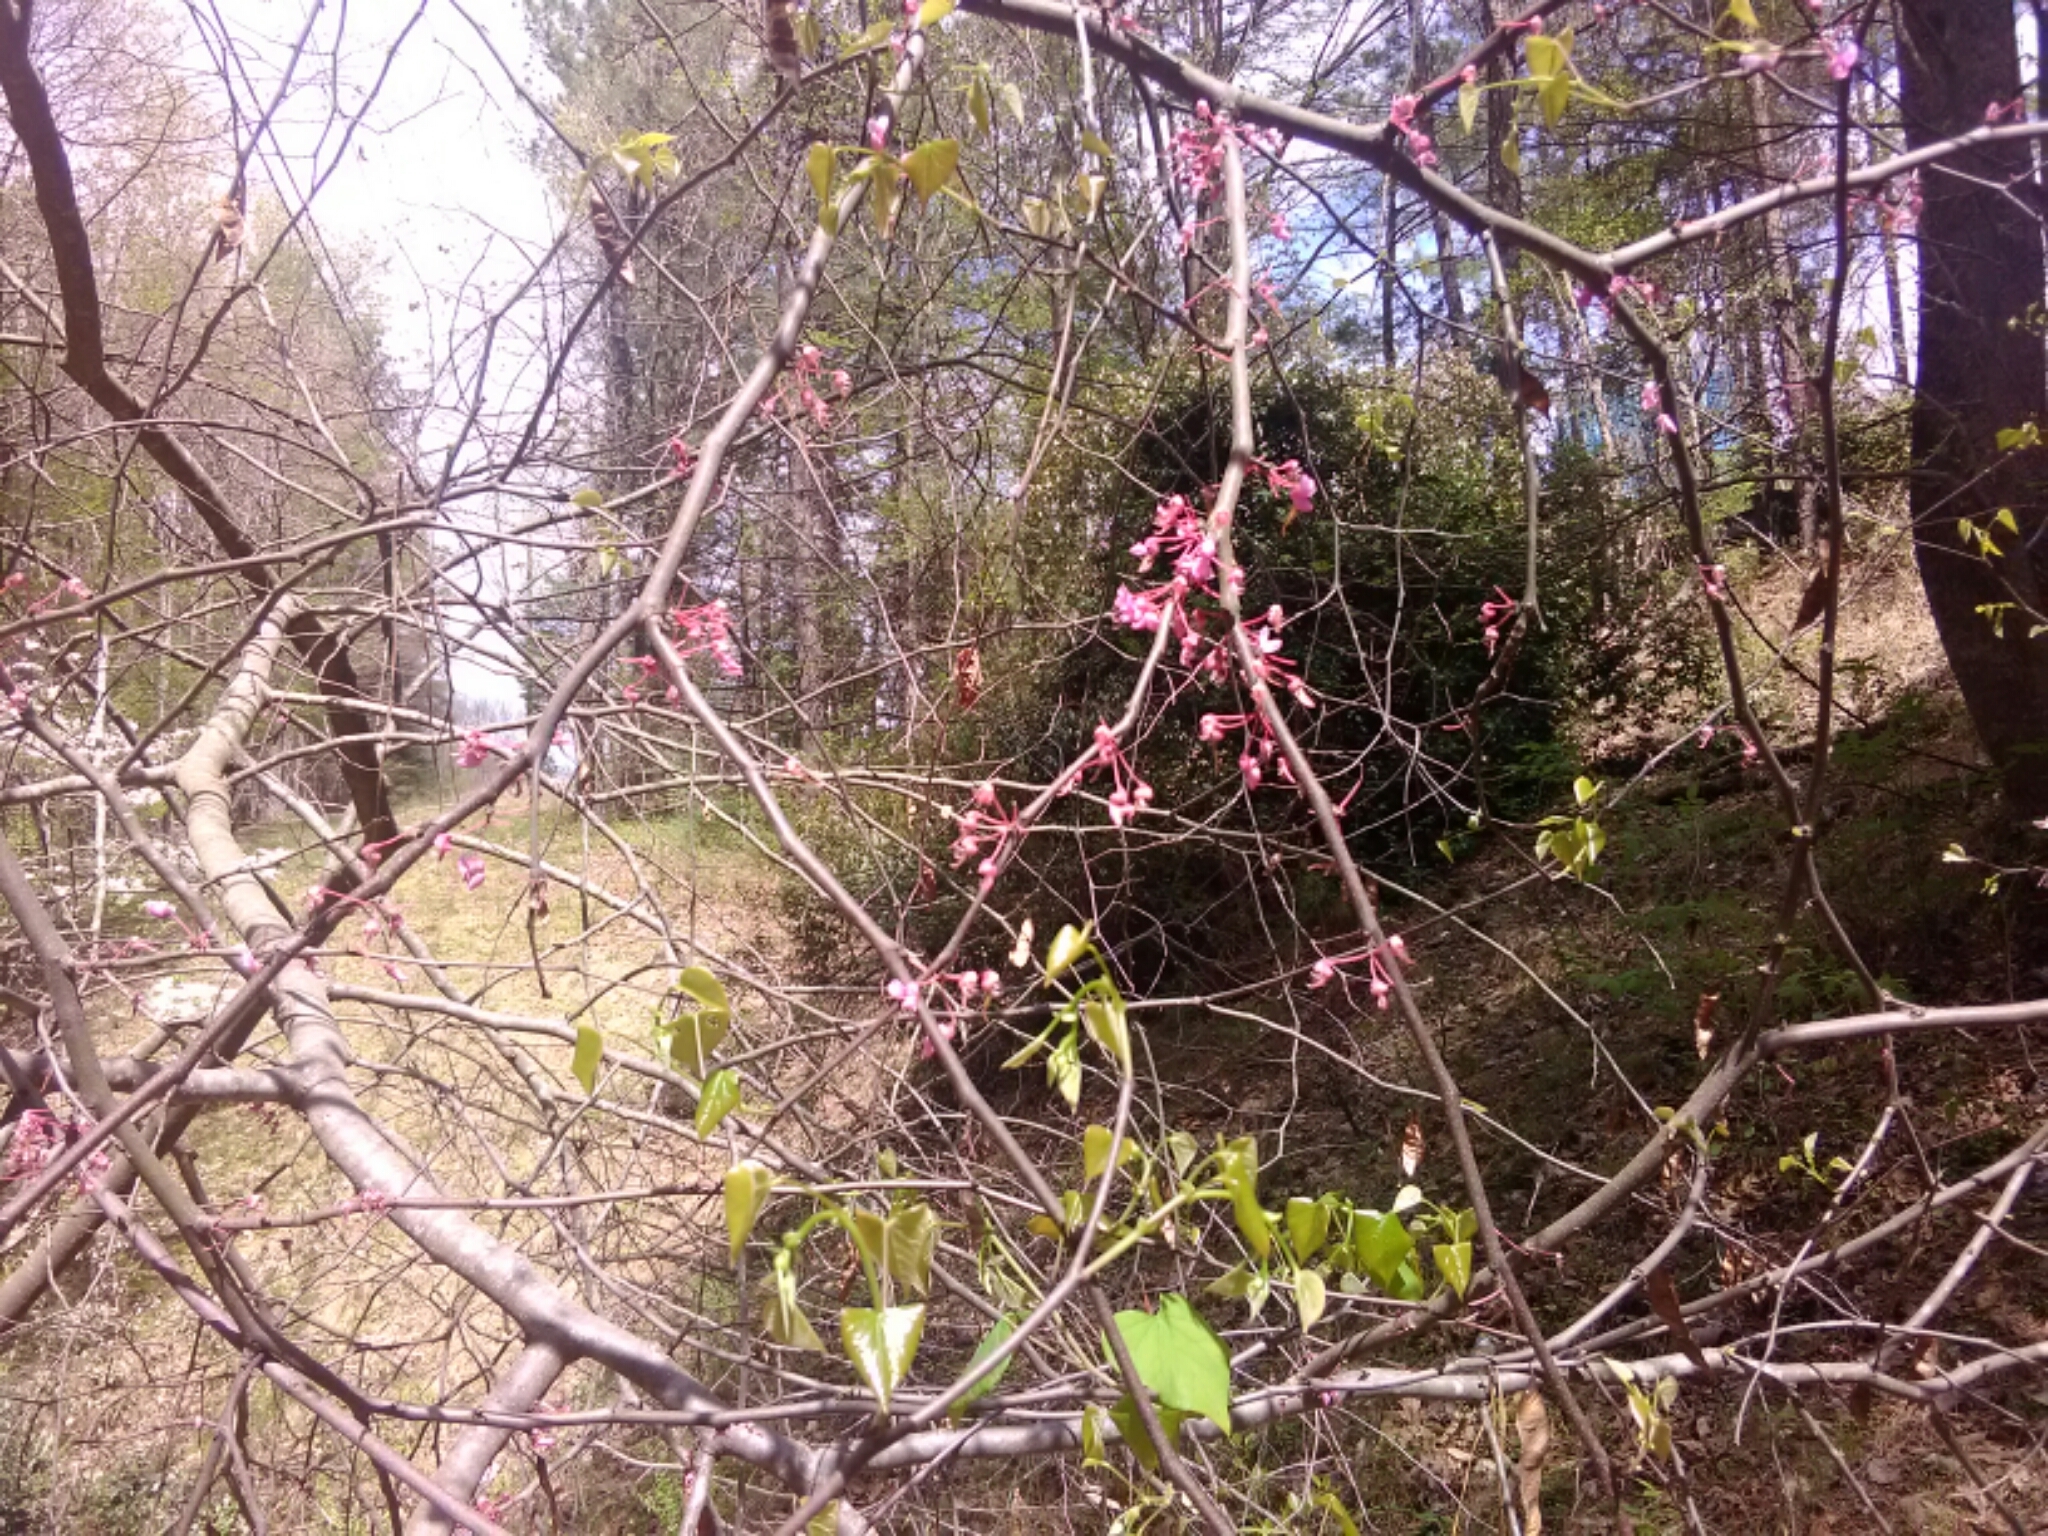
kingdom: Plantae
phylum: Tracheophyta
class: Magnoliopsida
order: Fabales
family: Fabaceae
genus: Cercis
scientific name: Cercis canadensis
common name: Eastern redbud
